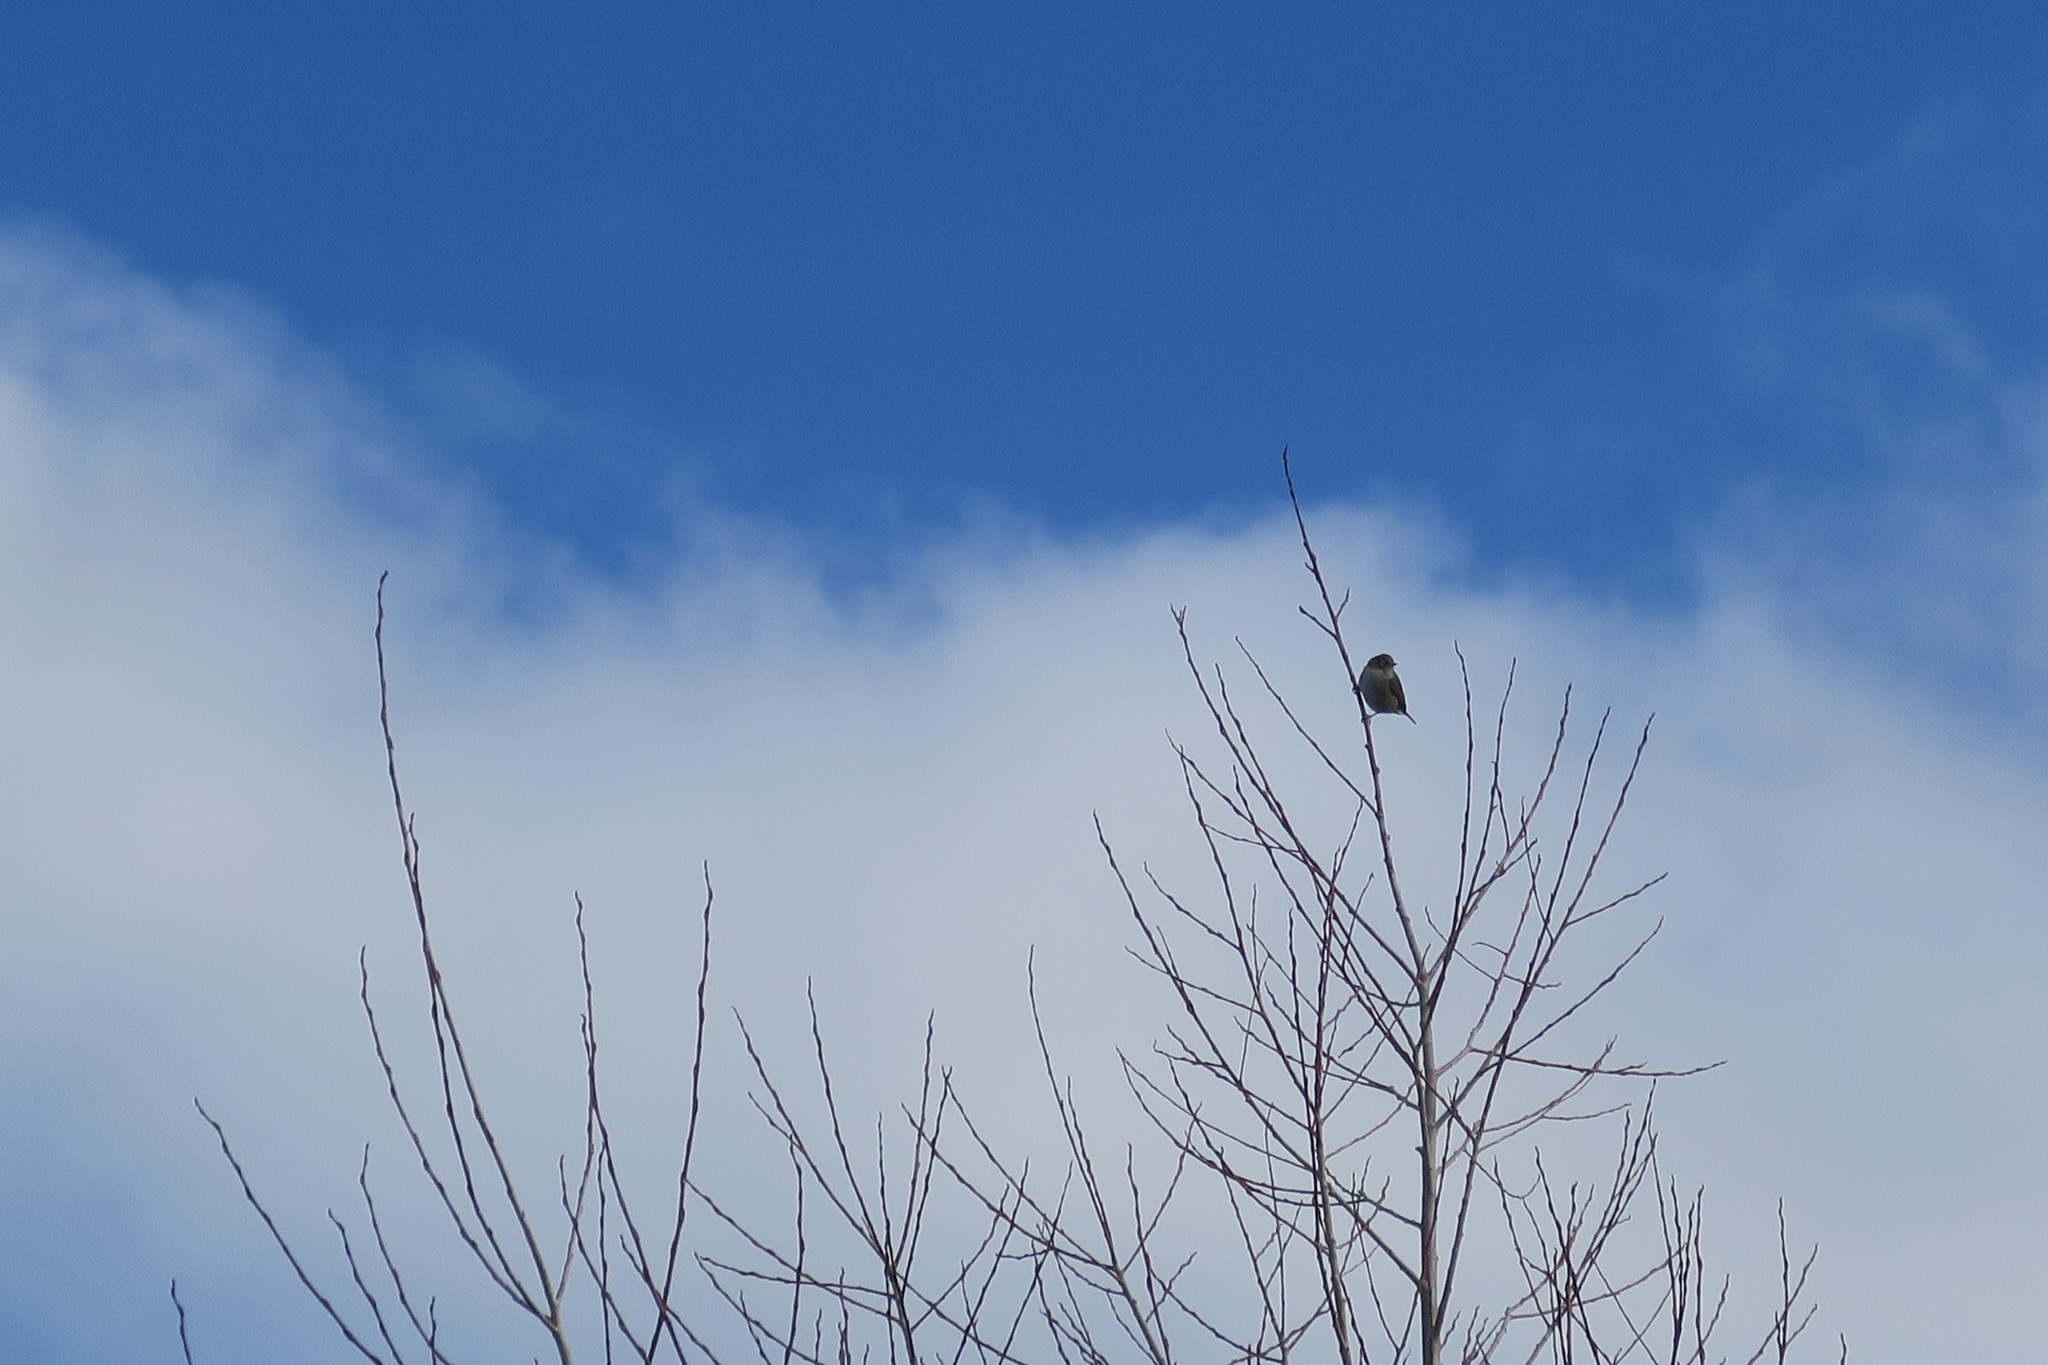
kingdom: Animalia
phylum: Chordata
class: Aves
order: Passeriformes
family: Zosteropidae
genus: Zosterops
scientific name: Zosterops lateralis
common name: Silvereye
